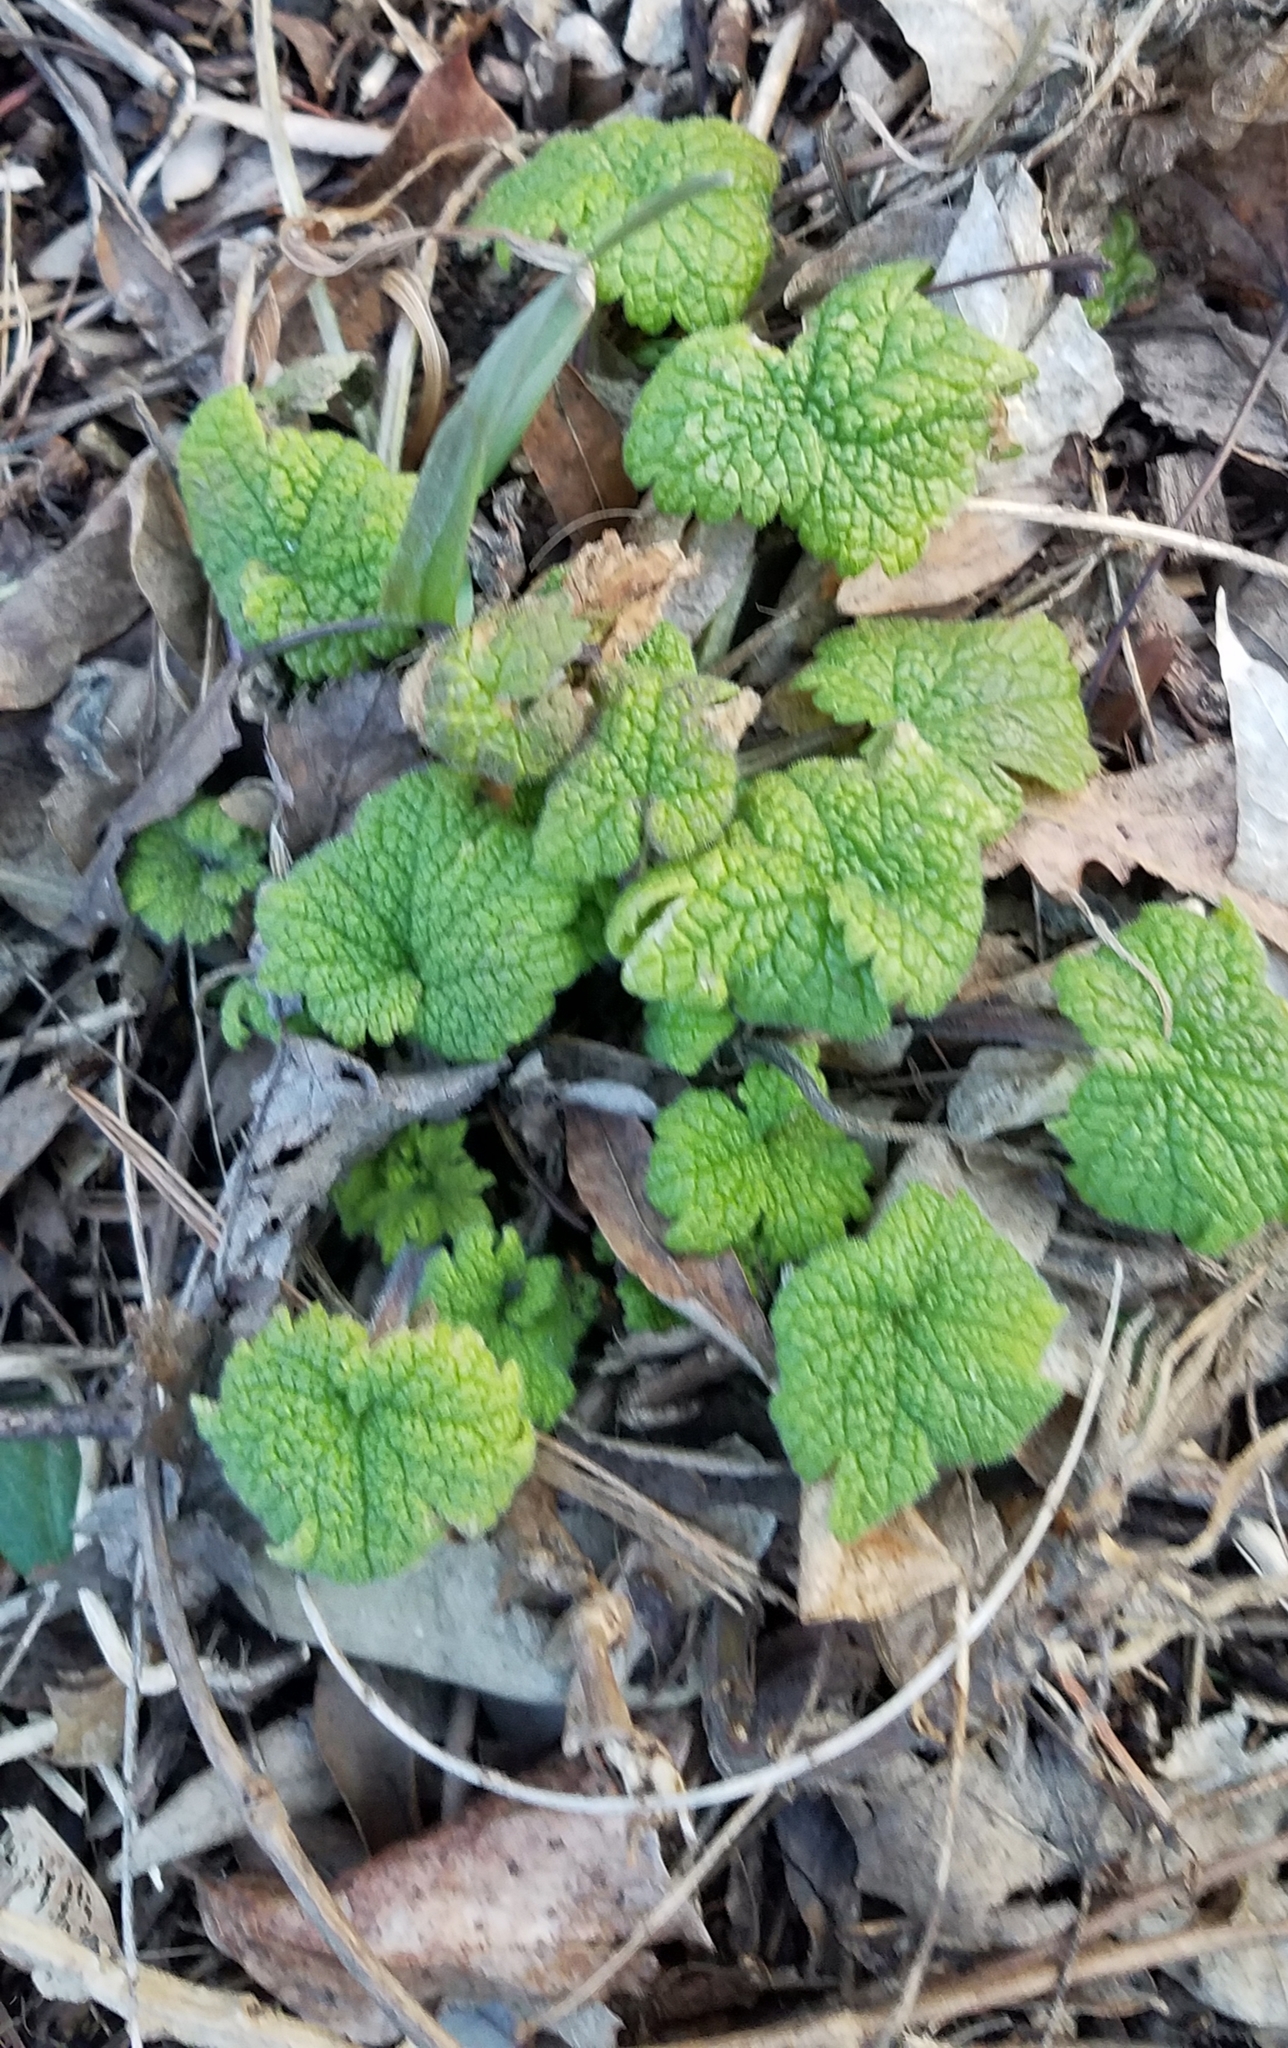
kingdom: Plantae
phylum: Tracheophyta
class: Magnoliopsida
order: Lamiales
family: Lamiaceae
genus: Leonurus
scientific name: Leonurus cardiaca
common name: Motherwort
